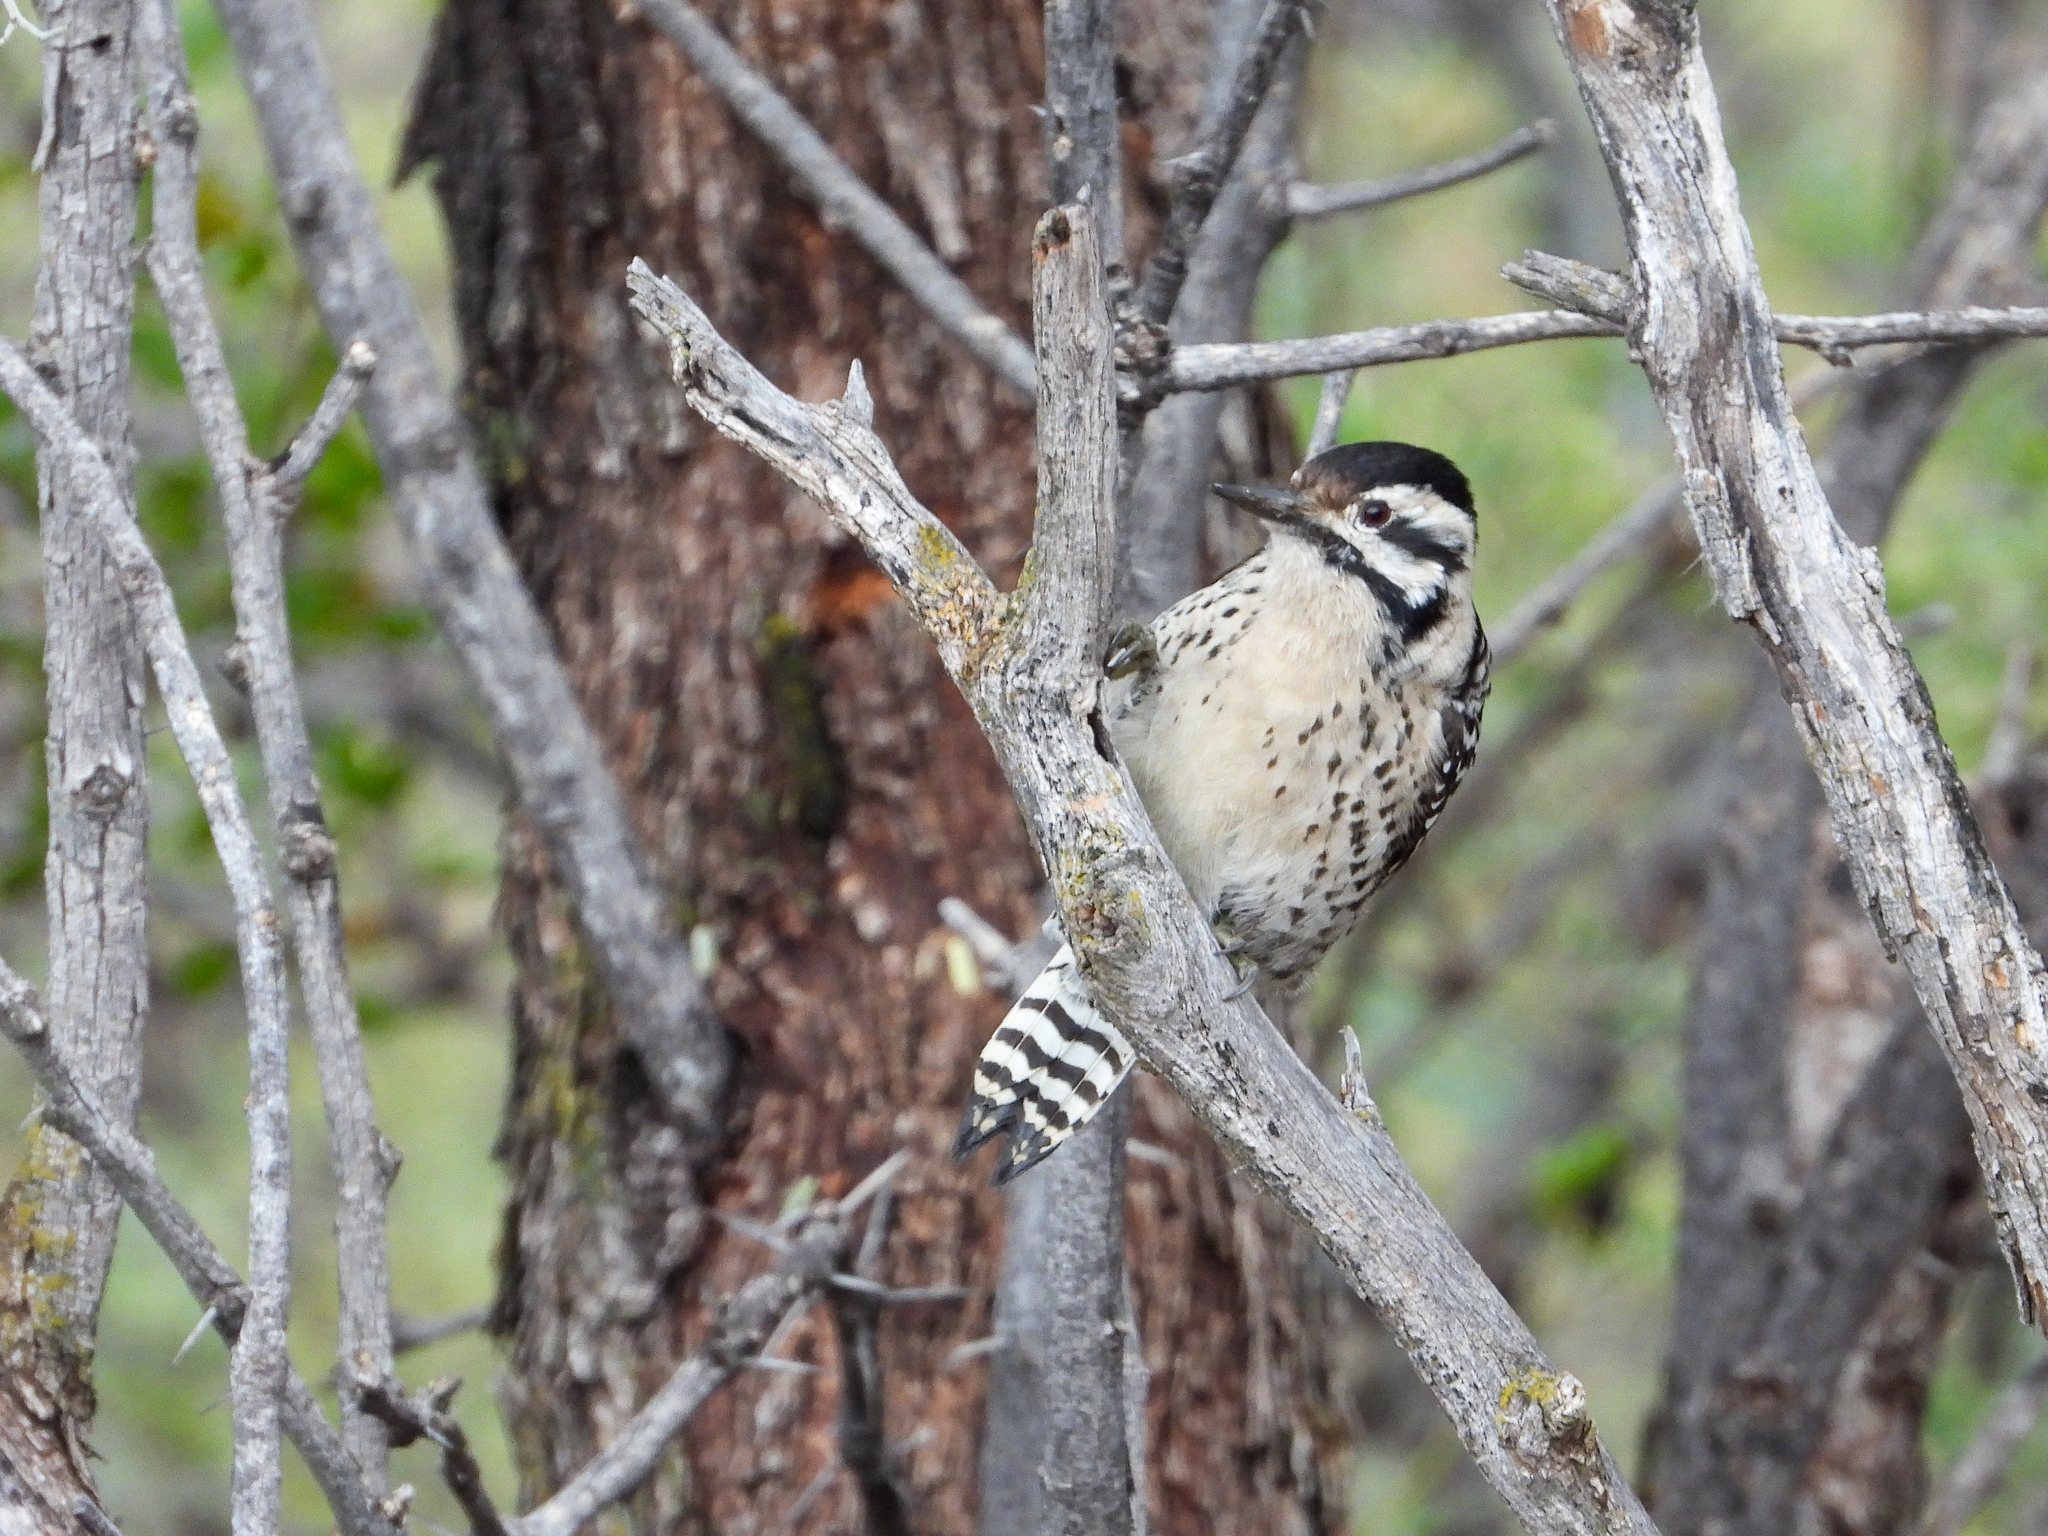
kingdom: Animalia
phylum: Chordata
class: Aves
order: Piciformes
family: Picidae
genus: Dryobates
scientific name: Dryobates scalaris
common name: Ladder-backed woodpecker
